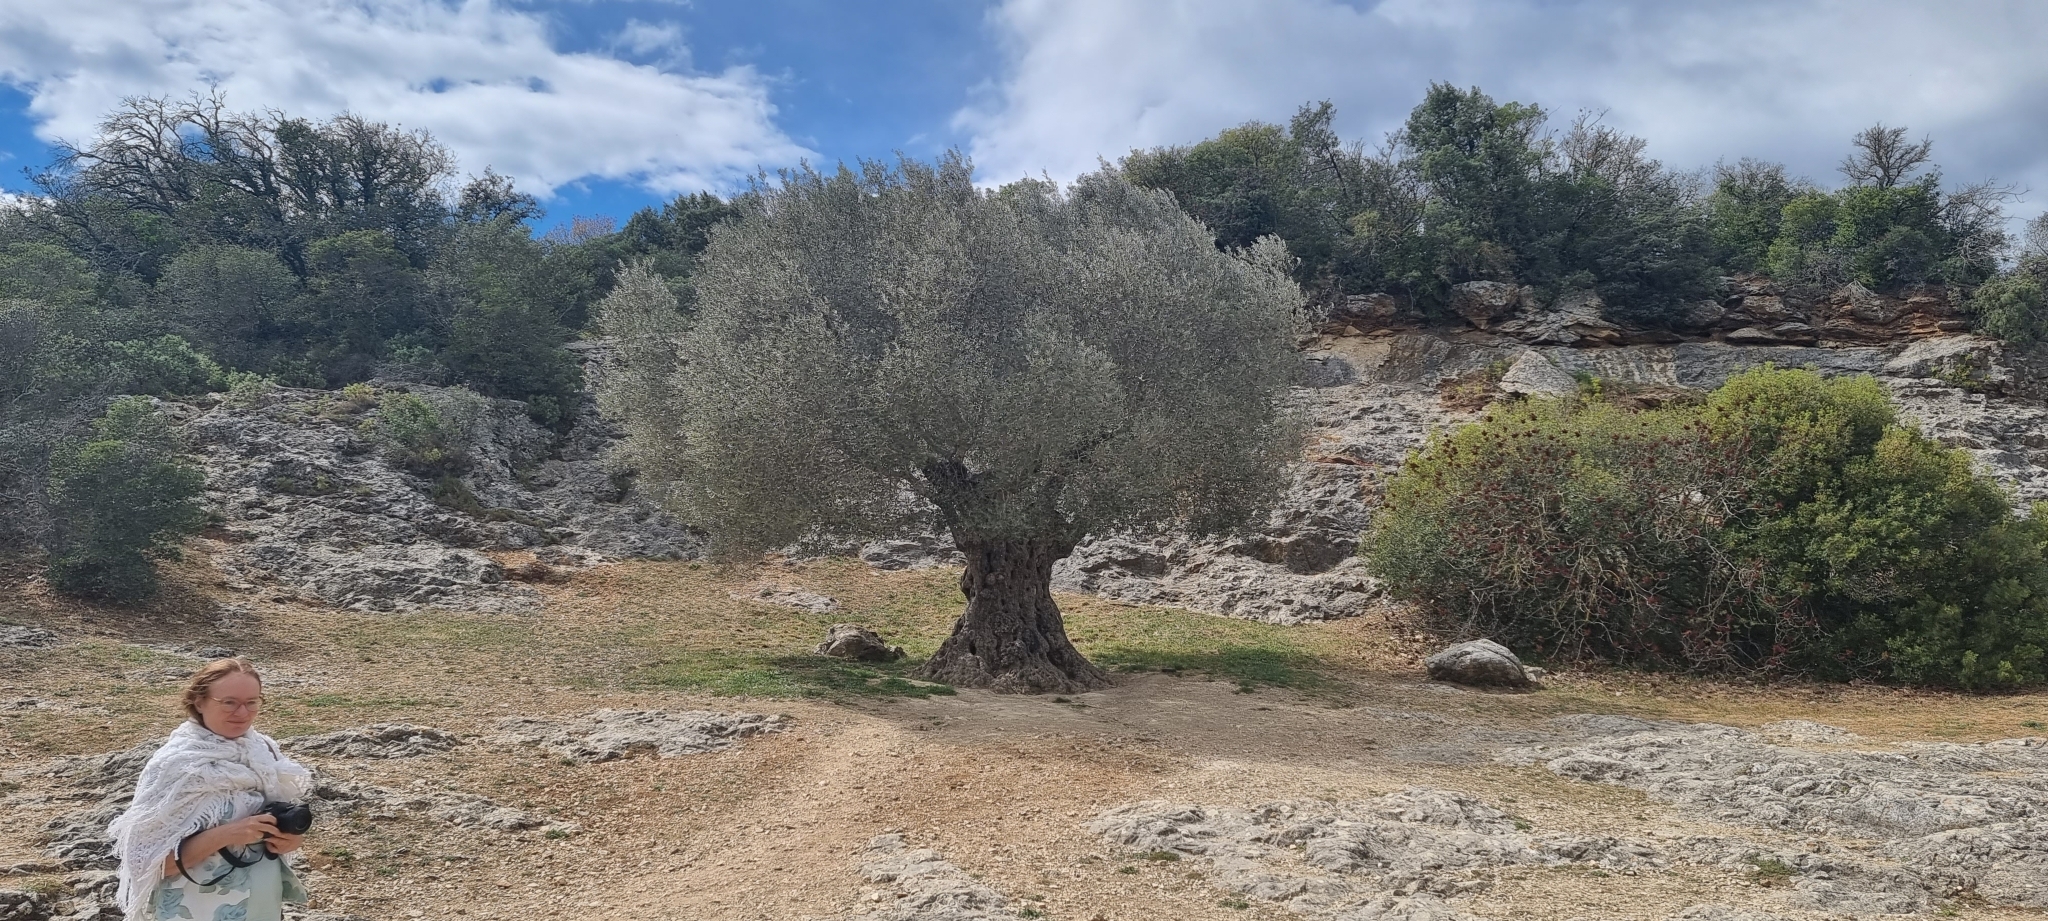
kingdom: Plantae
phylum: Tracheophyta
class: Magnoliopsida
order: Lamiales
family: Oleaceae
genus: Olea
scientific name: Olea europaea
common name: Olive
